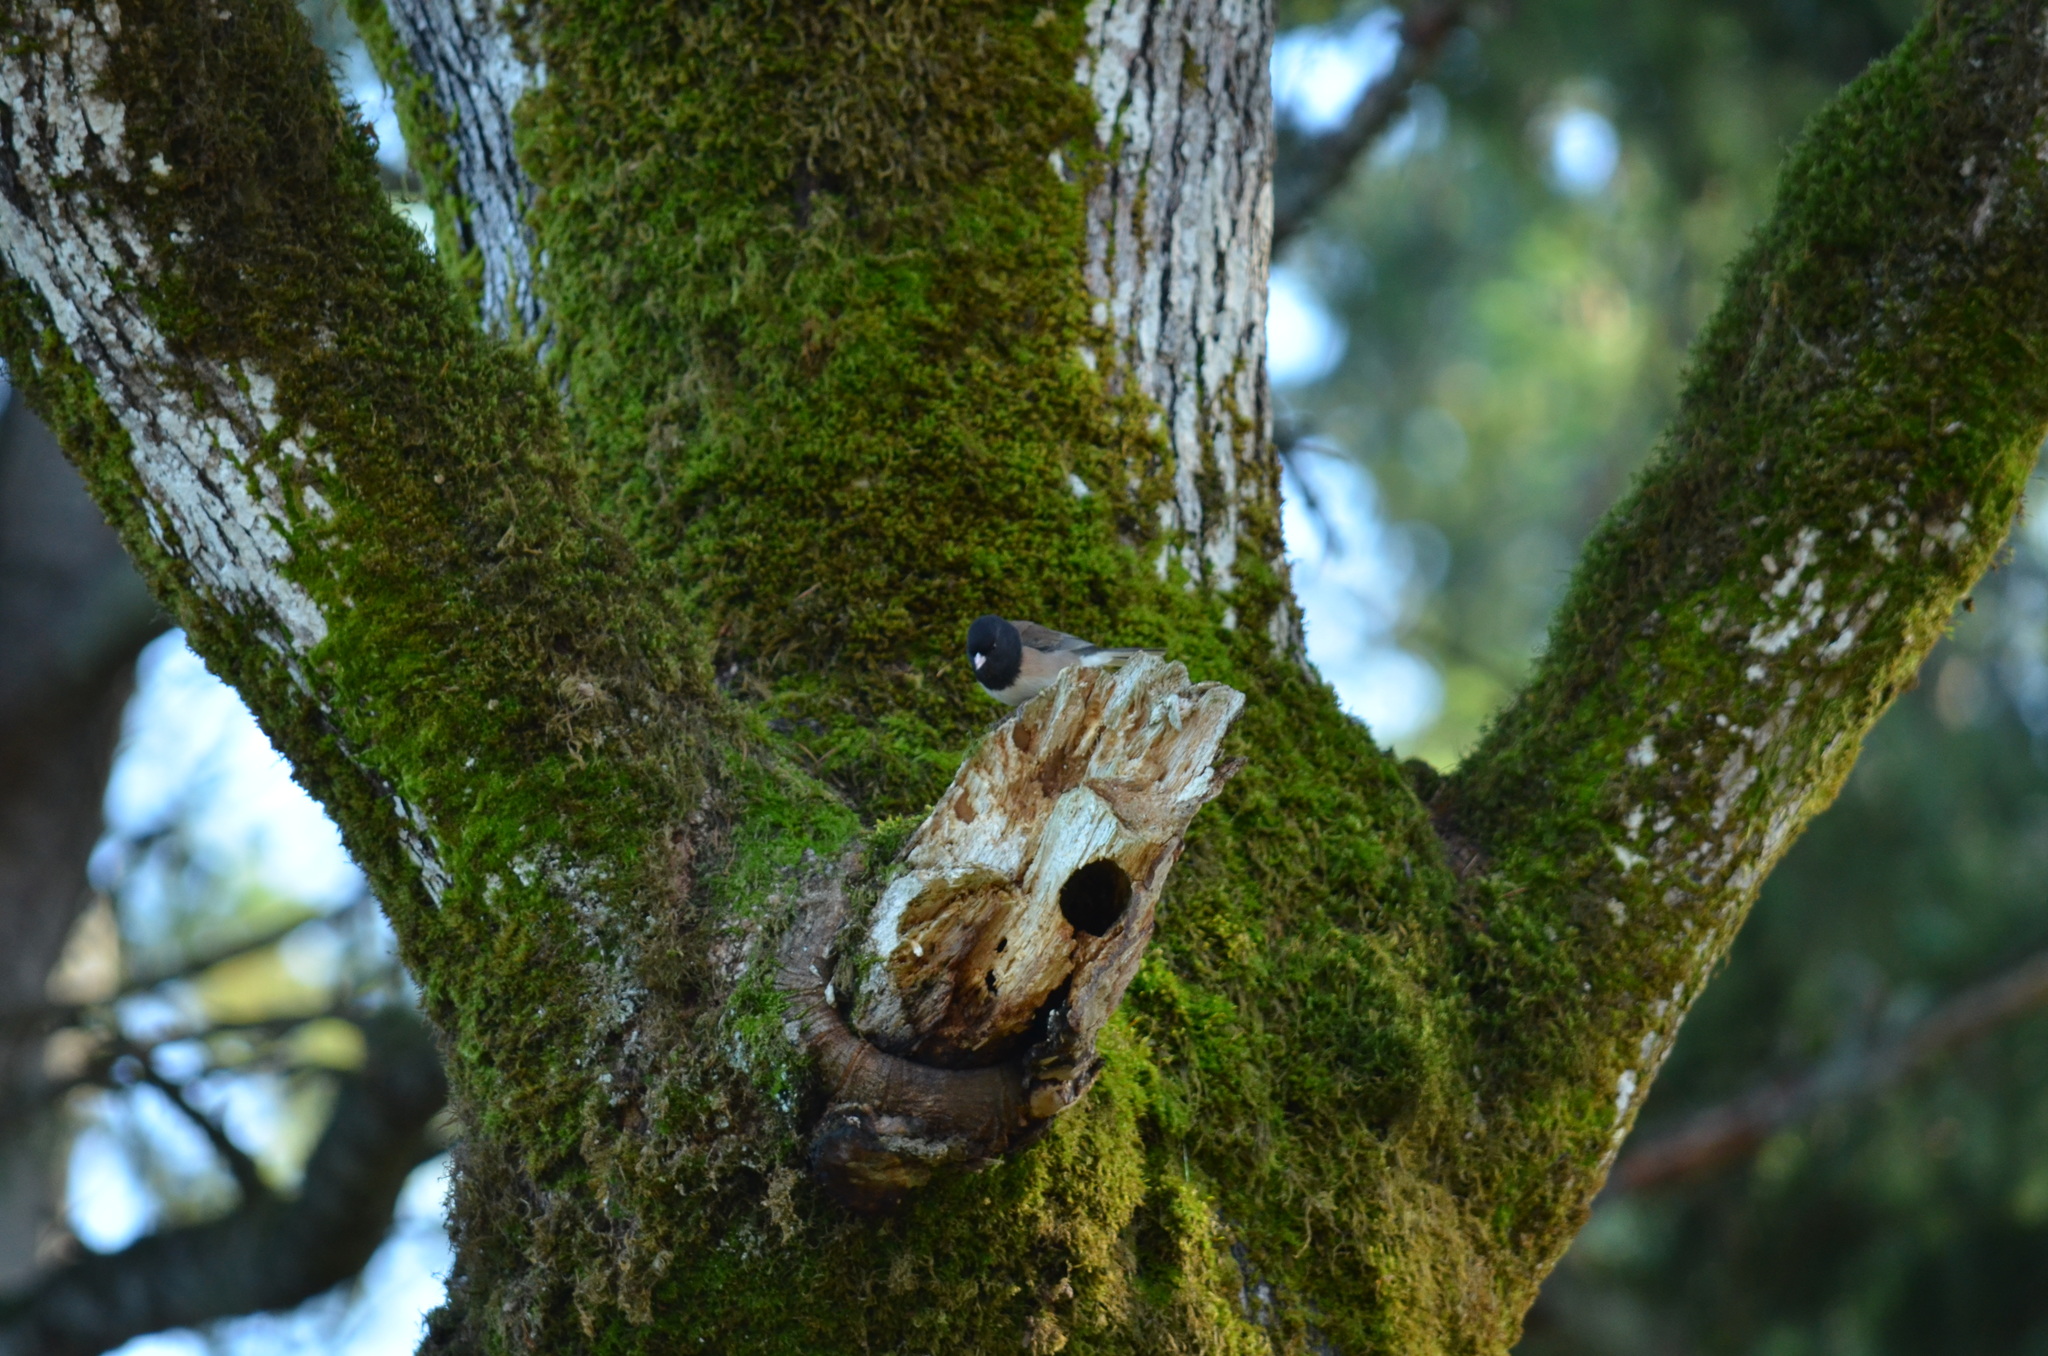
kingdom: Animalia
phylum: Chordata
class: Aves
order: Passeriformes
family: Passerellidae
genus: Junco
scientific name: Junco hyemalis
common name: Dark-eyed junco
